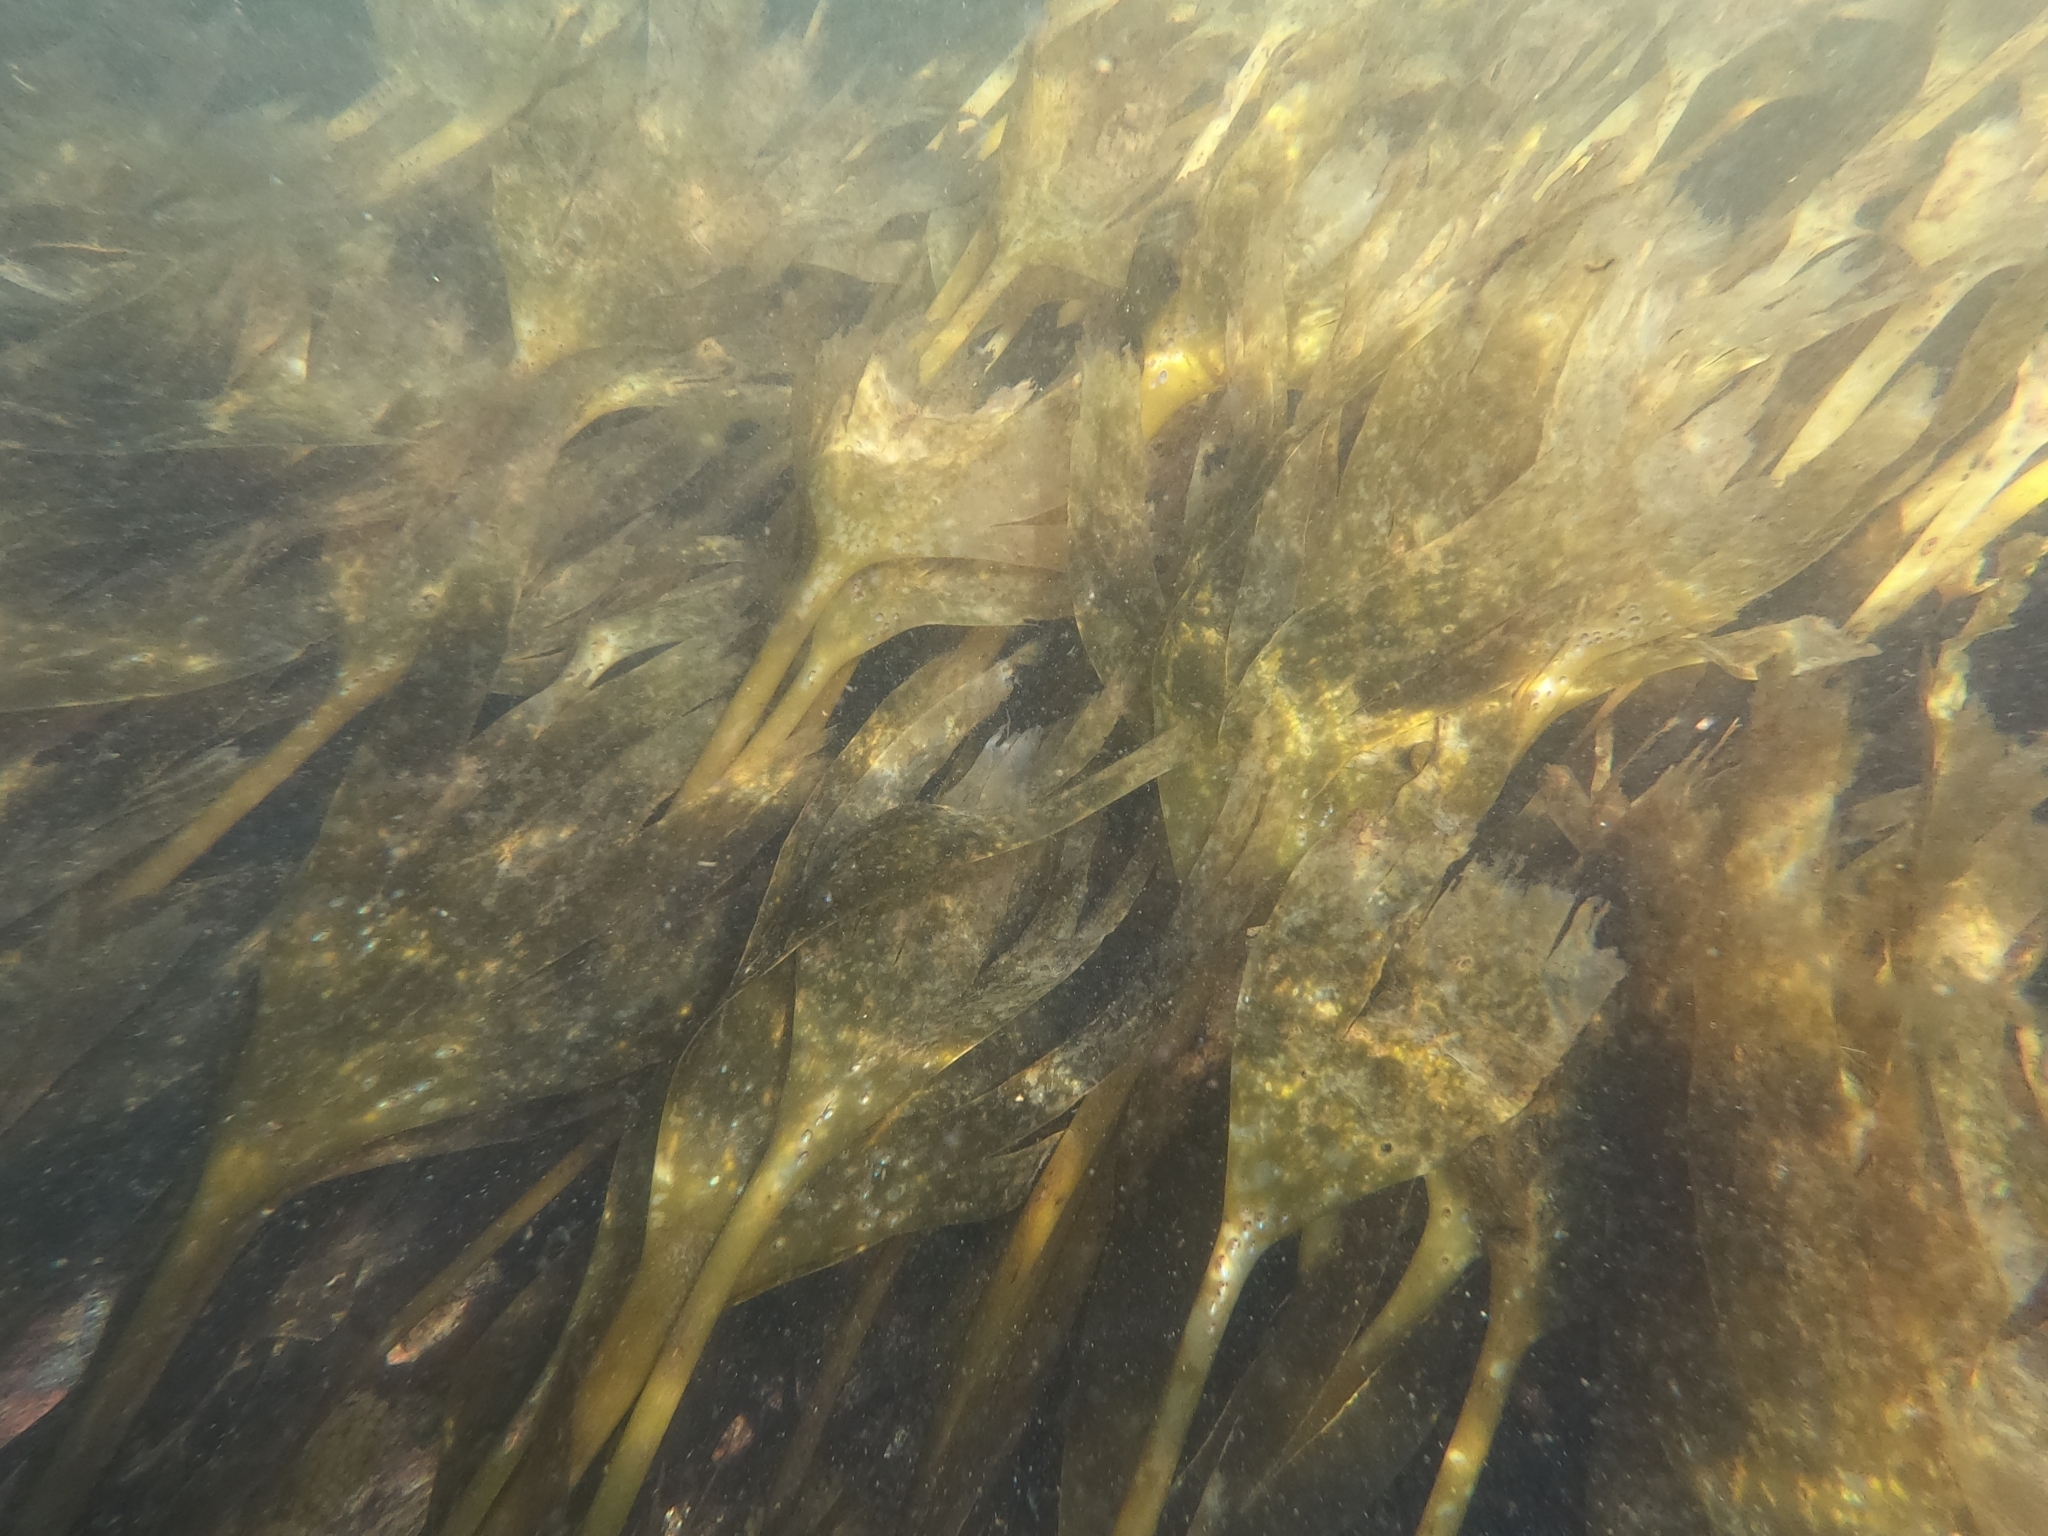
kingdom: Chromista
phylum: Ochrophyta
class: Phaeophyceae
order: Tilopteridales
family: Phyllariaceae
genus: Saccorhiza
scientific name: Saccorhiza polyschides
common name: Furbelows
